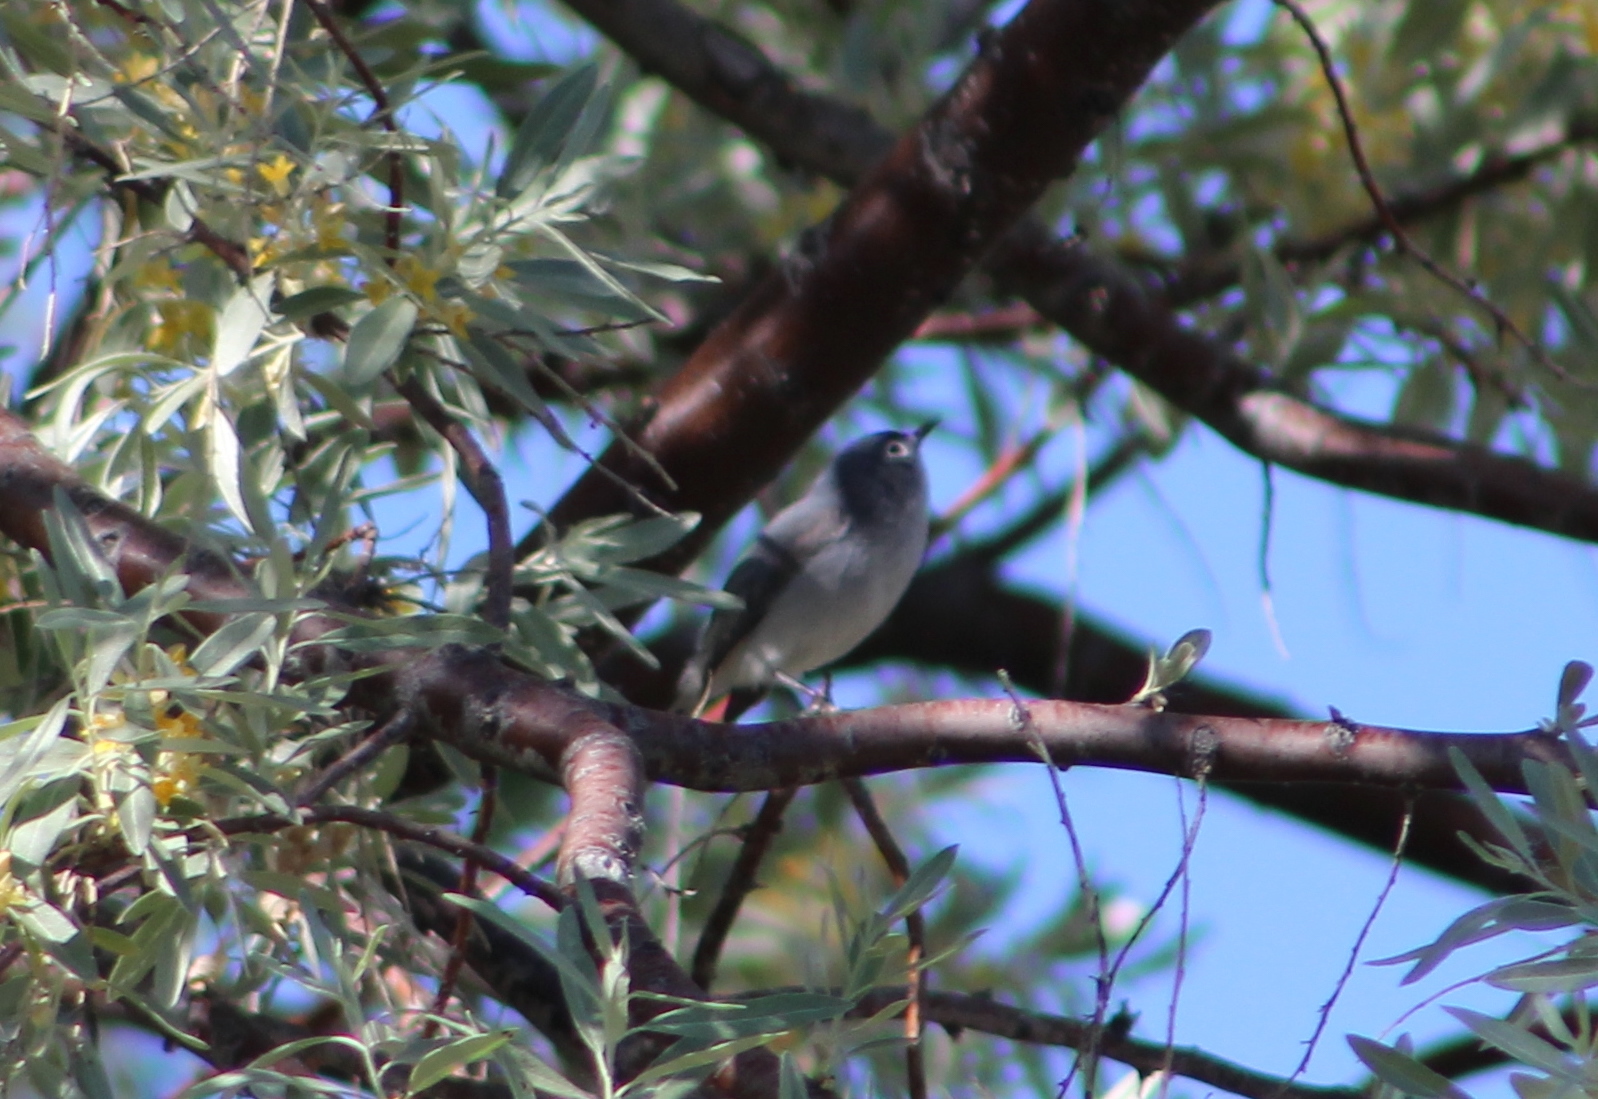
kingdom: Animalia
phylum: Chordata
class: Aves
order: Passeriformes
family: Polioptilidae
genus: Polioptila
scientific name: Polioptila caerulea
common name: Blue-gray gnatcatcher
